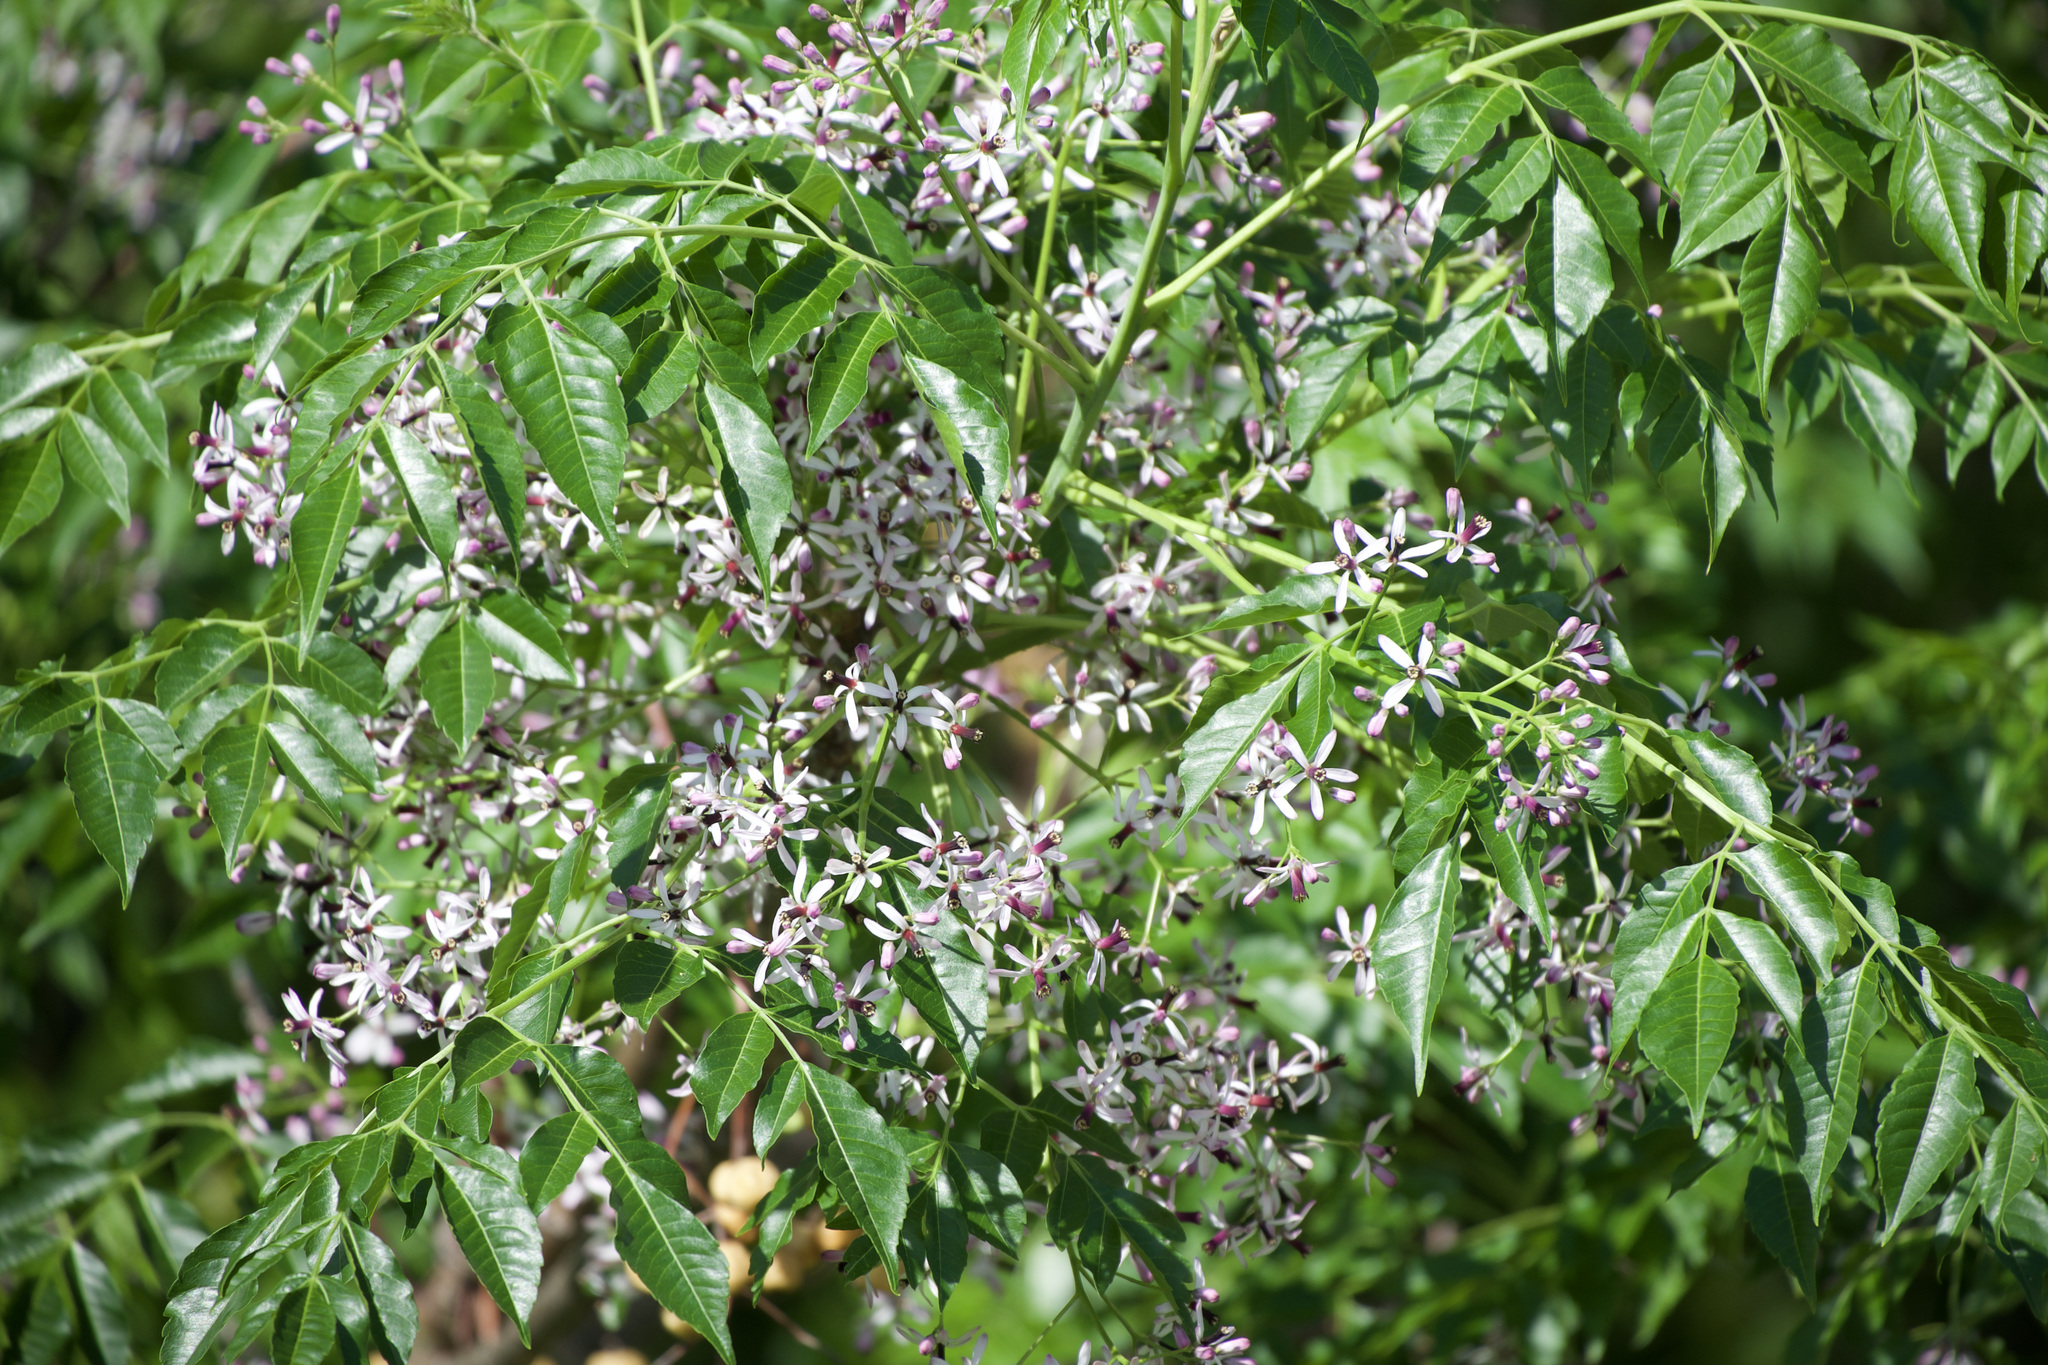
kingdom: Plantae
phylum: Tracheophyta
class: Magnoliopsida
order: Sapindales
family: Meliaceae
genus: Melia
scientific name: Melia azedarach
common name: Chinaberrytree
